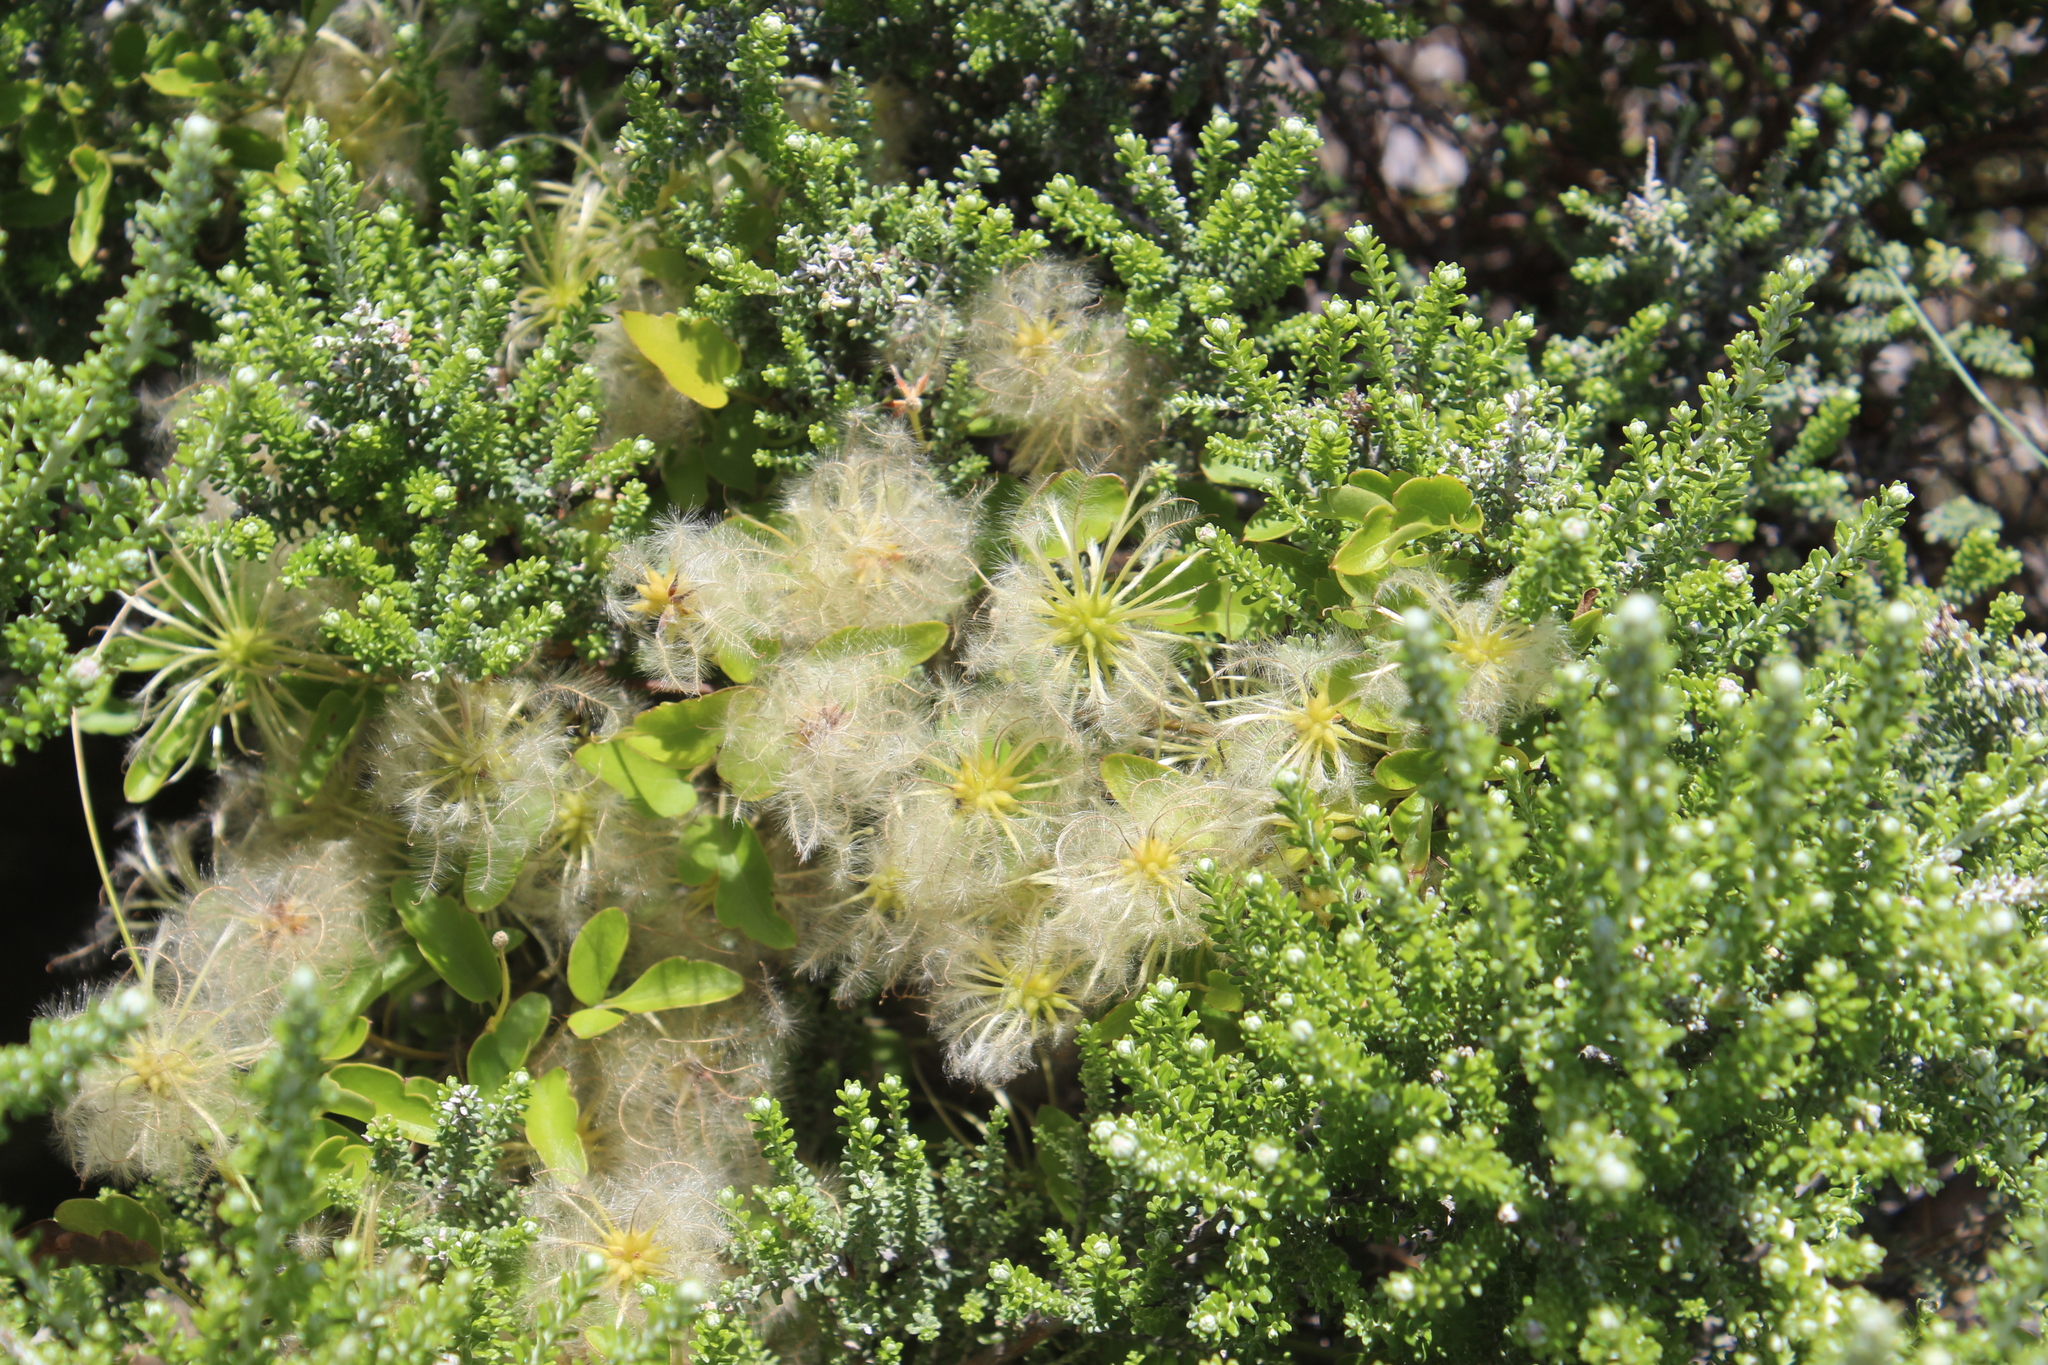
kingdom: Plantae
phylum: Tracheophyta
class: Magnoliopsida
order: Ranunculales
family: Ranunculaceae
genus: Clematis
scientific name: Clematis forsteri
